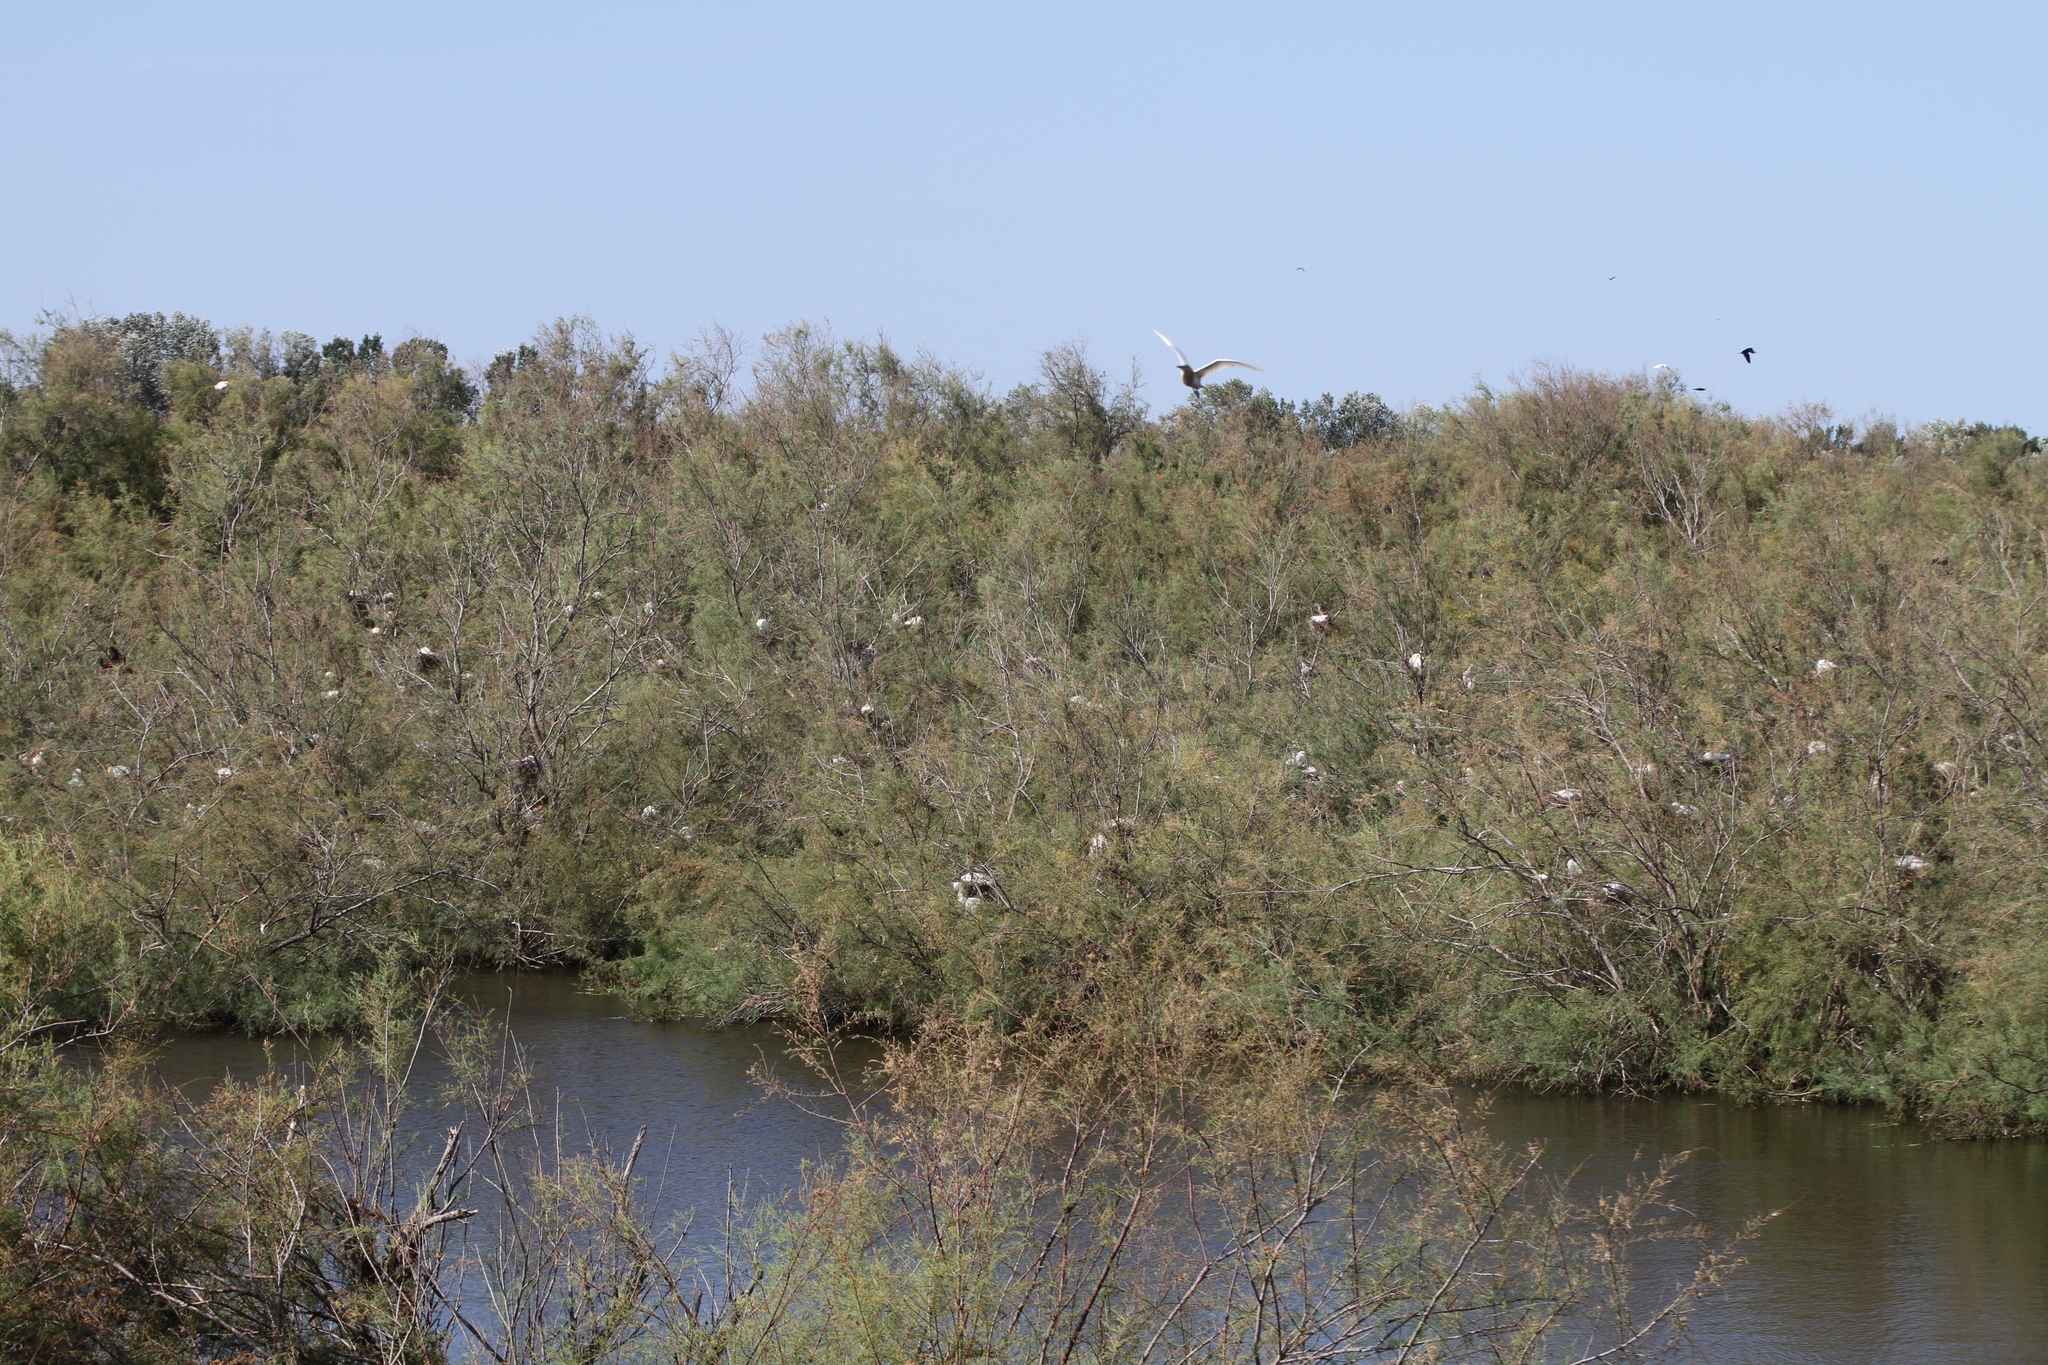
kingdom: Animalia
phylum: Chordata
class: Aves
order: Pelecaniformes
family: Ardeidae
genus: Ardeola
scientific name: Ardeola ralloides
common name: Squacco heron
